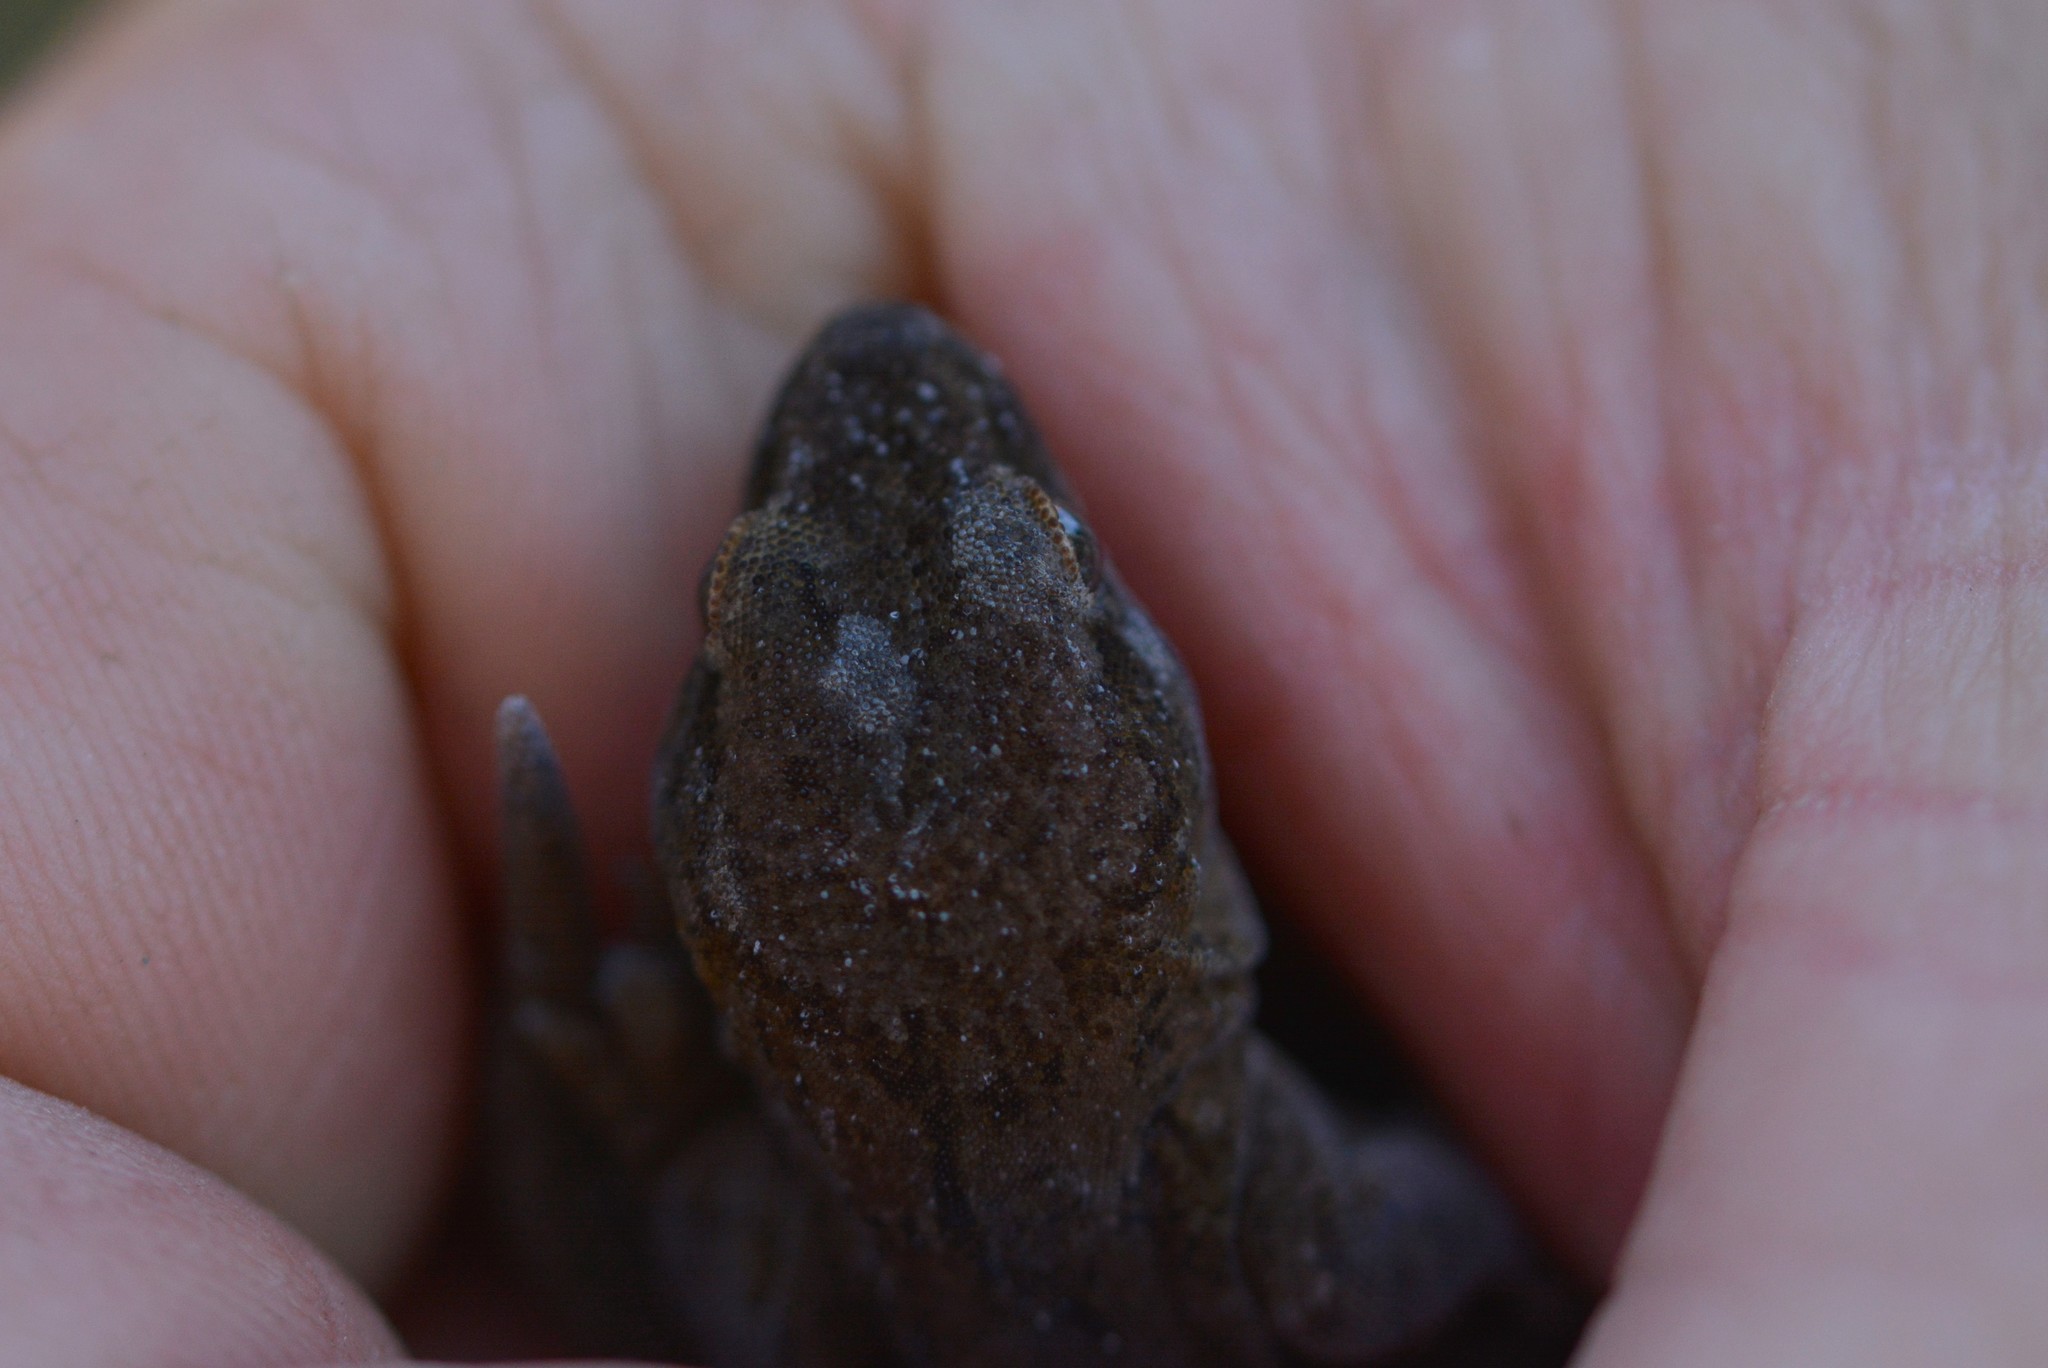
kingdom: Animalia
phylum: Chordata
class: Squamata
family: Diplodactylidae
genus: Woodworthia
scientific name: Woodworthia
